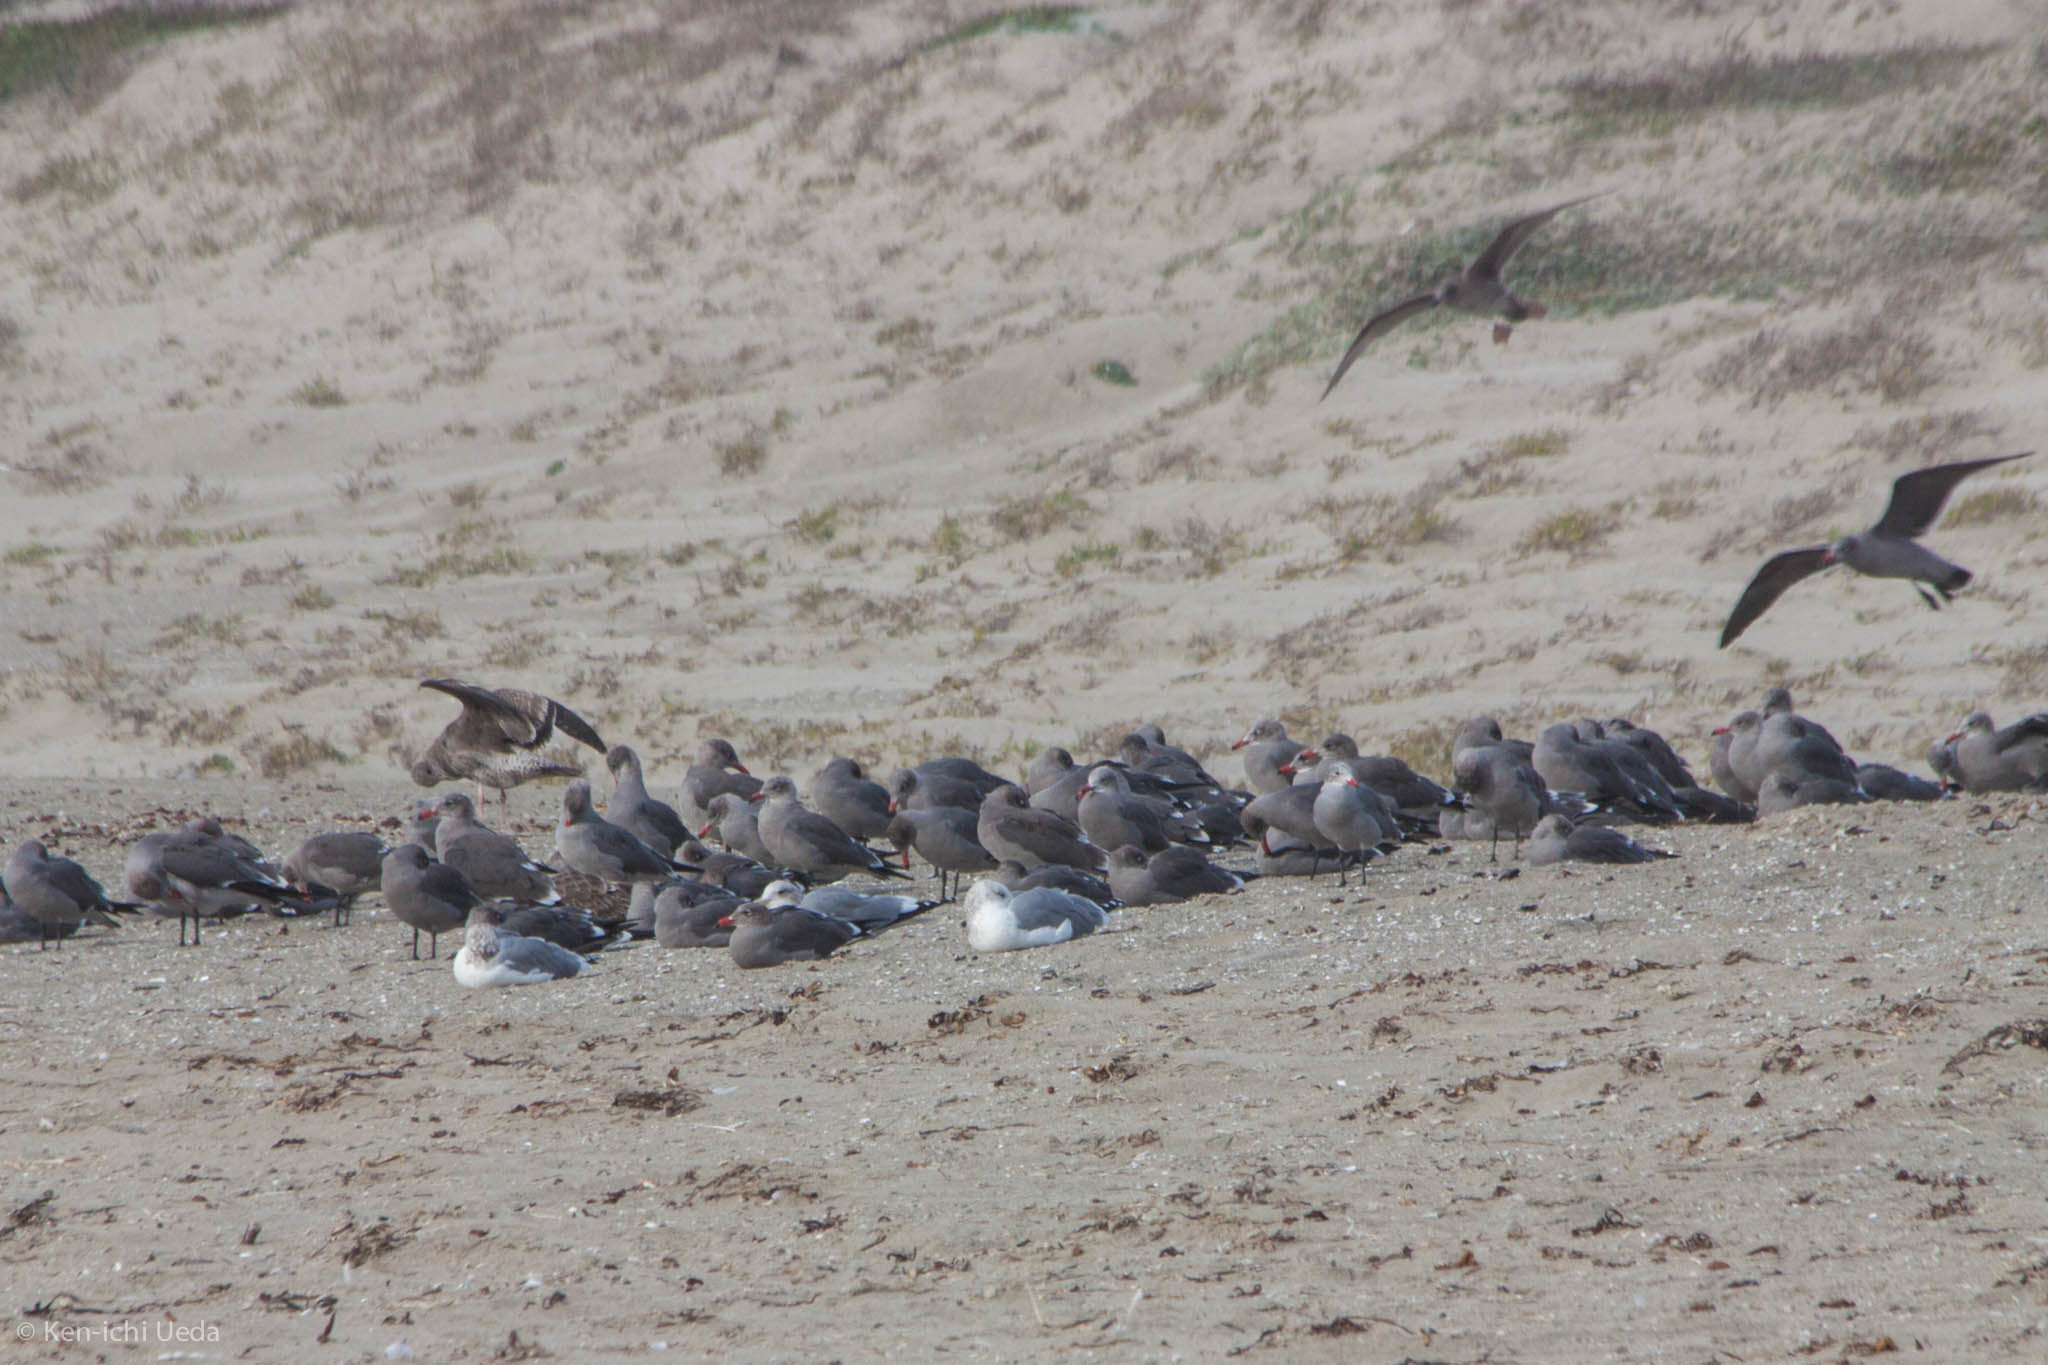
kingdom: Animalia
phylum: Chordata
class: Aves
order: Charadriiformes
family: Laridae
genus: Larus
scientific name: Larus heermanni
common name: Heermann's gull
